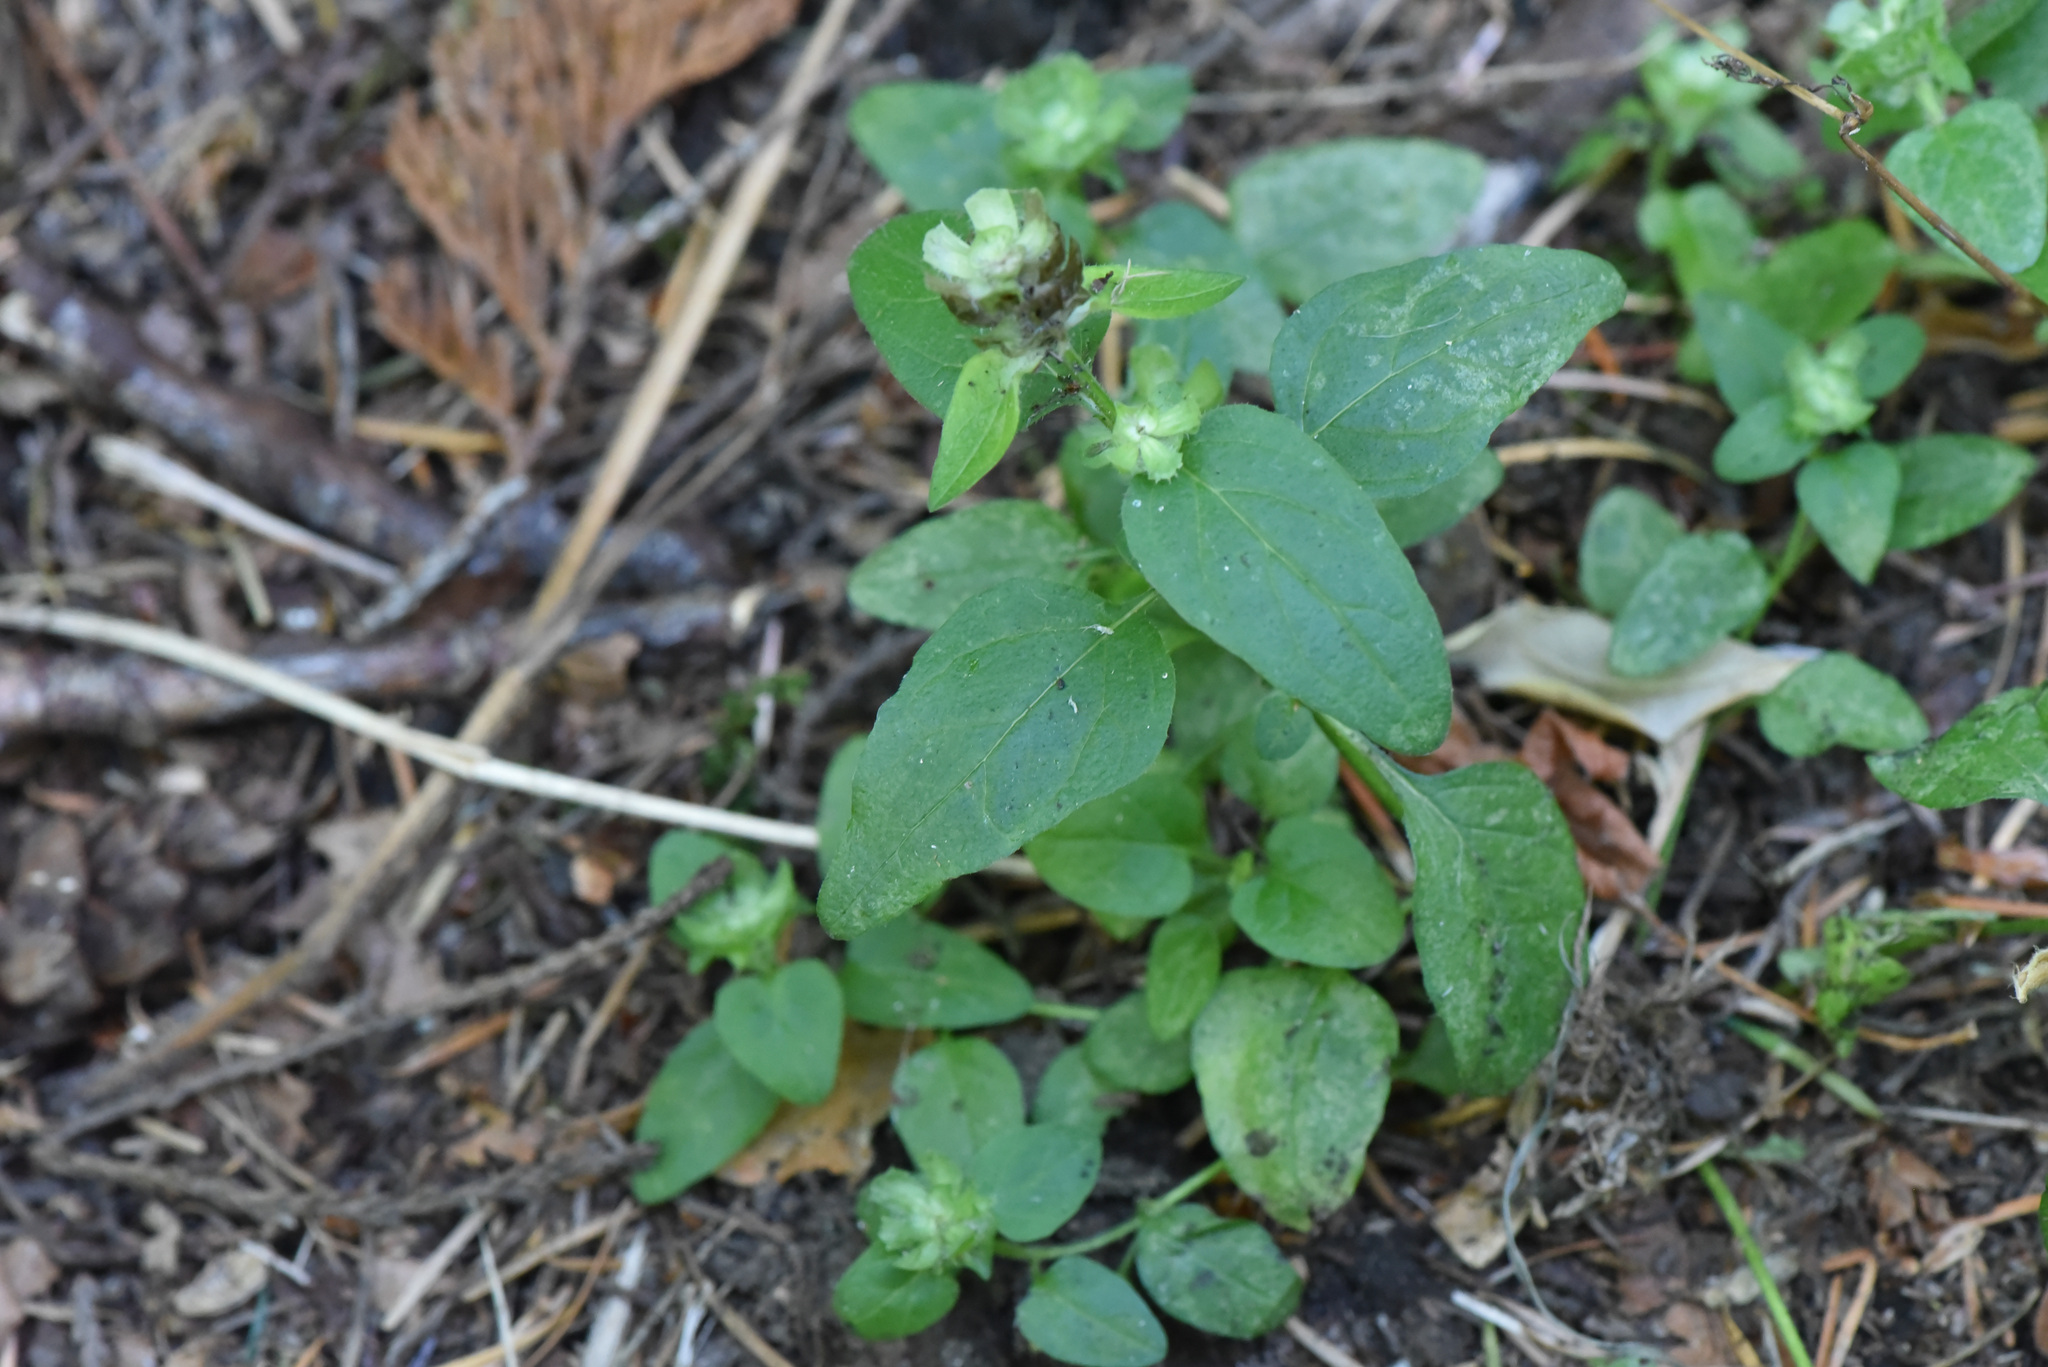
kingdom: Plantae
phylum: Tracheophyta
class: Magnoliopsida
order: Lamiales
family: Lamiaceae
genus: Prunella
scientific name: Prunella vulgaris
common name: Heal-all
